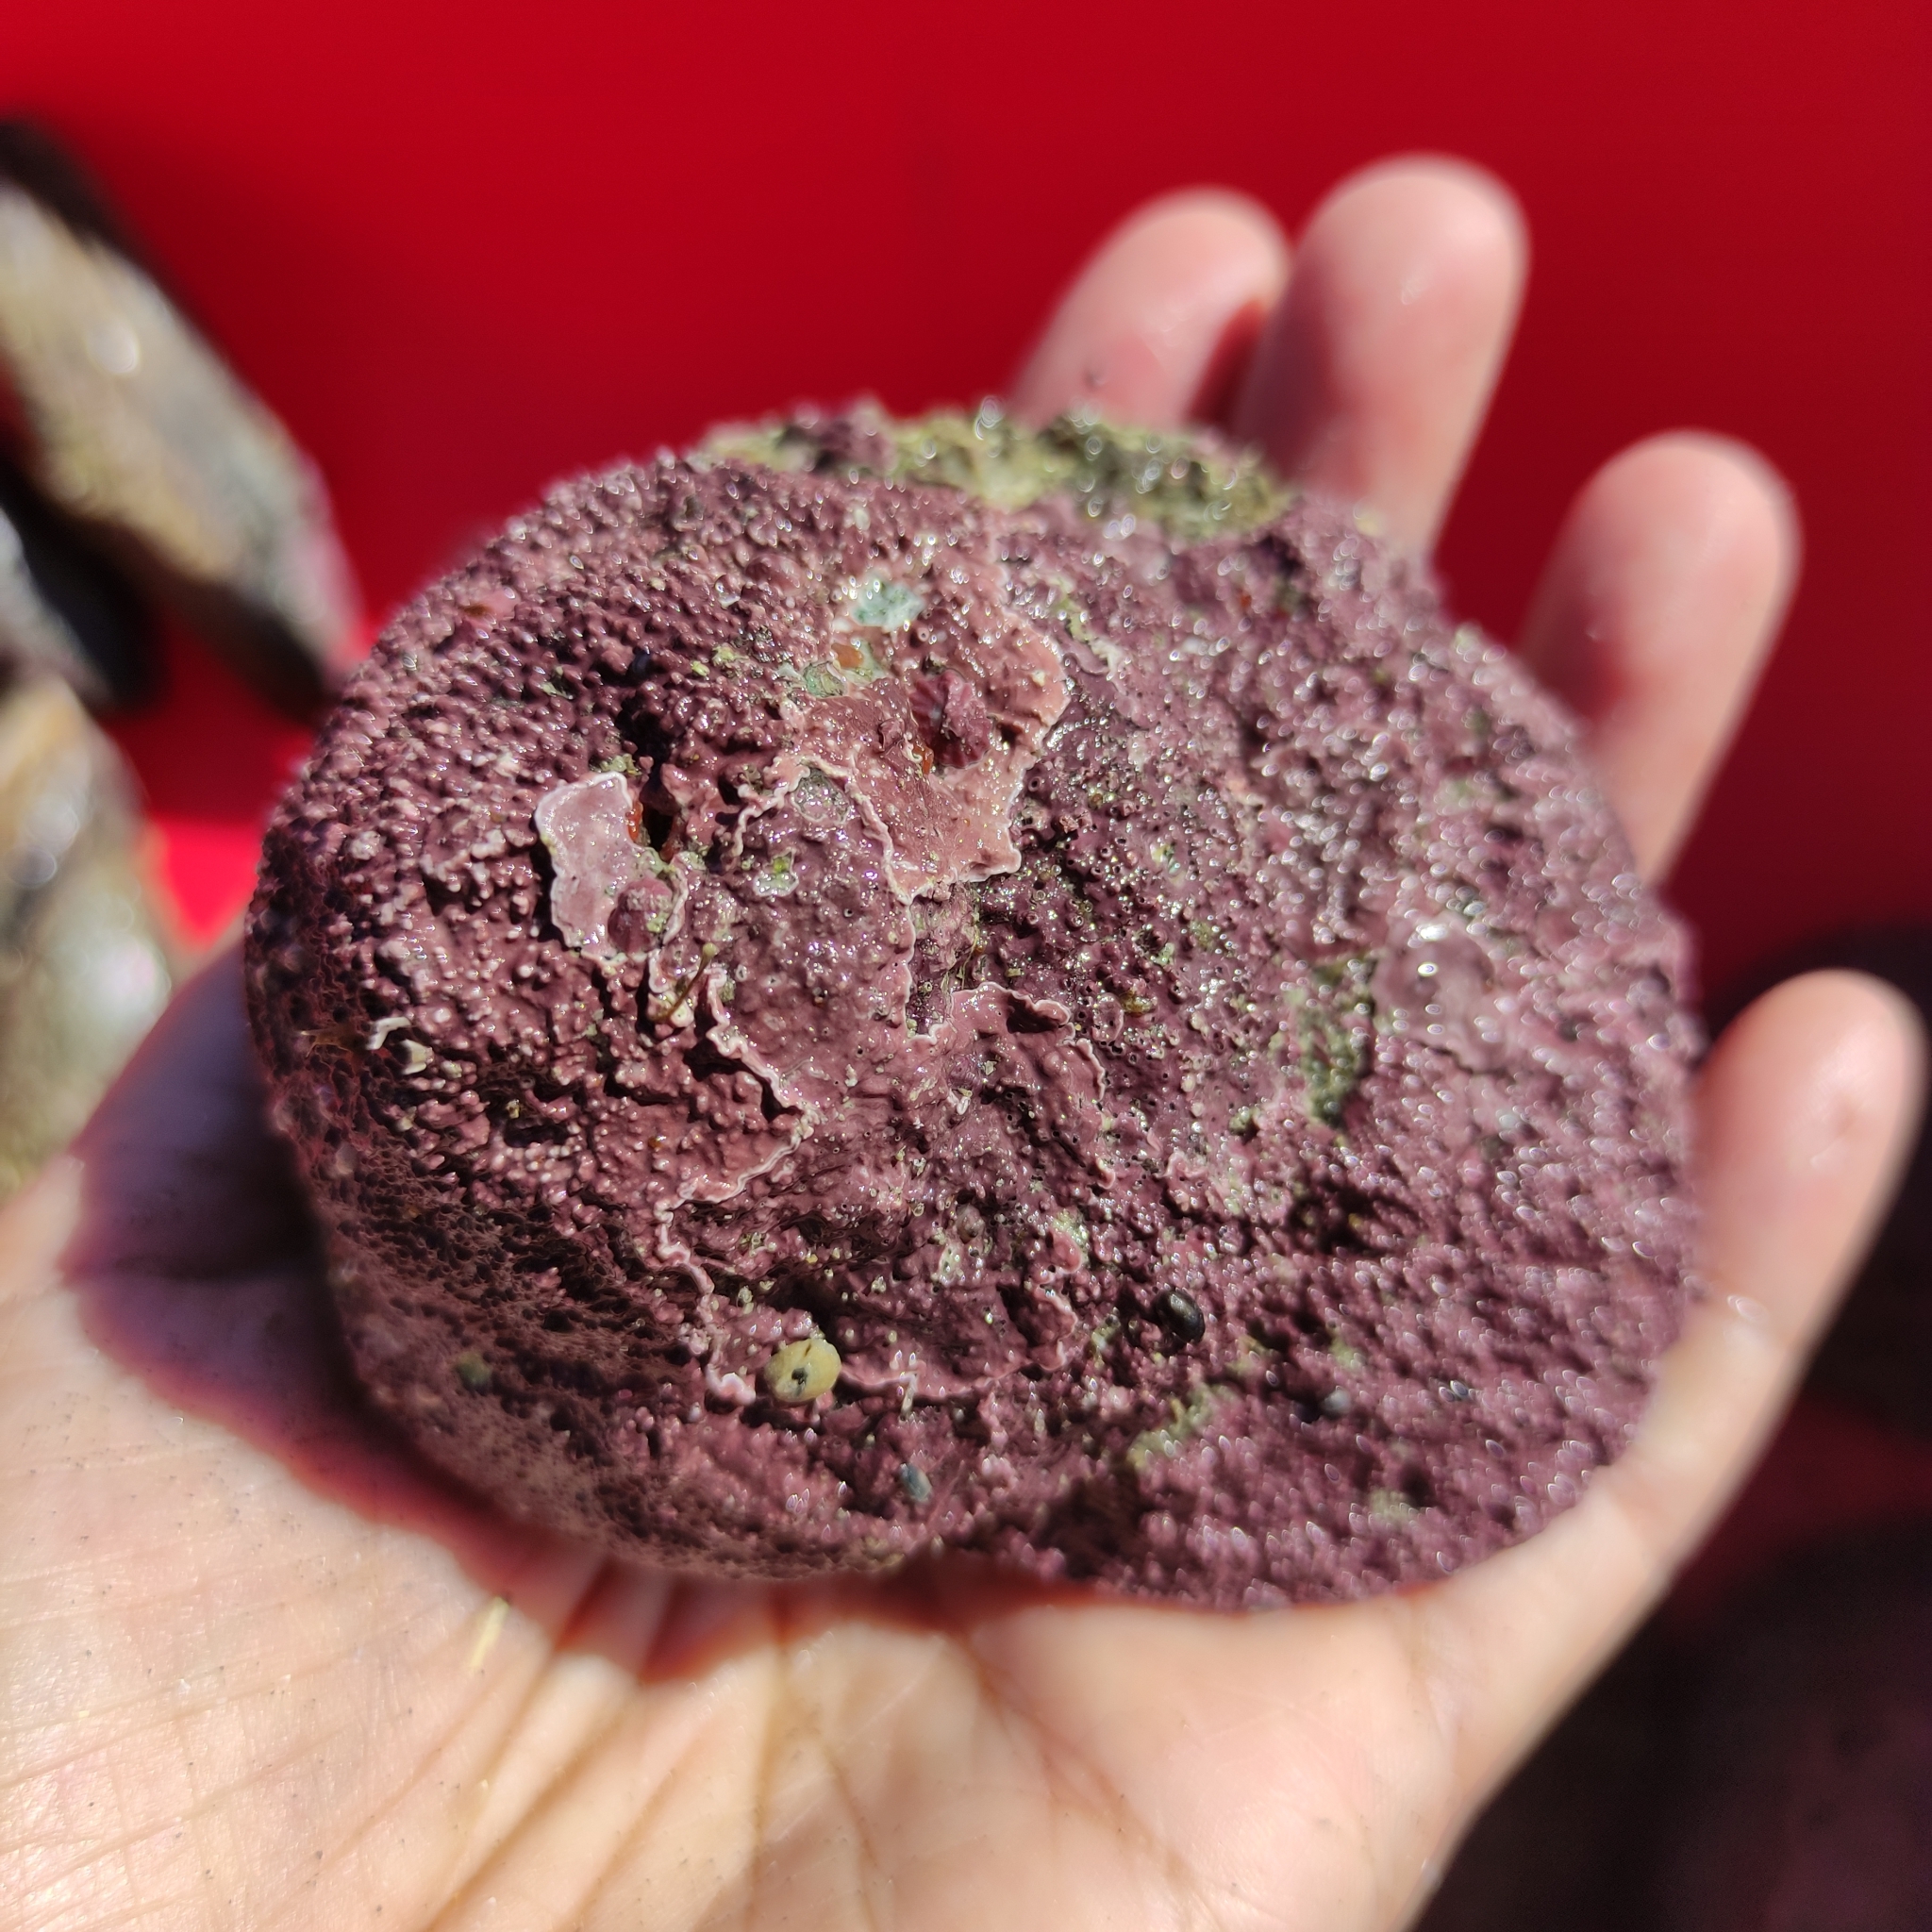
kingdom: Animalia
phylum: Mollusca
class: Gastropoda
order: Trochida
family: Turbinidae
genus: Cookia
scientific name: Cookia sulcata
